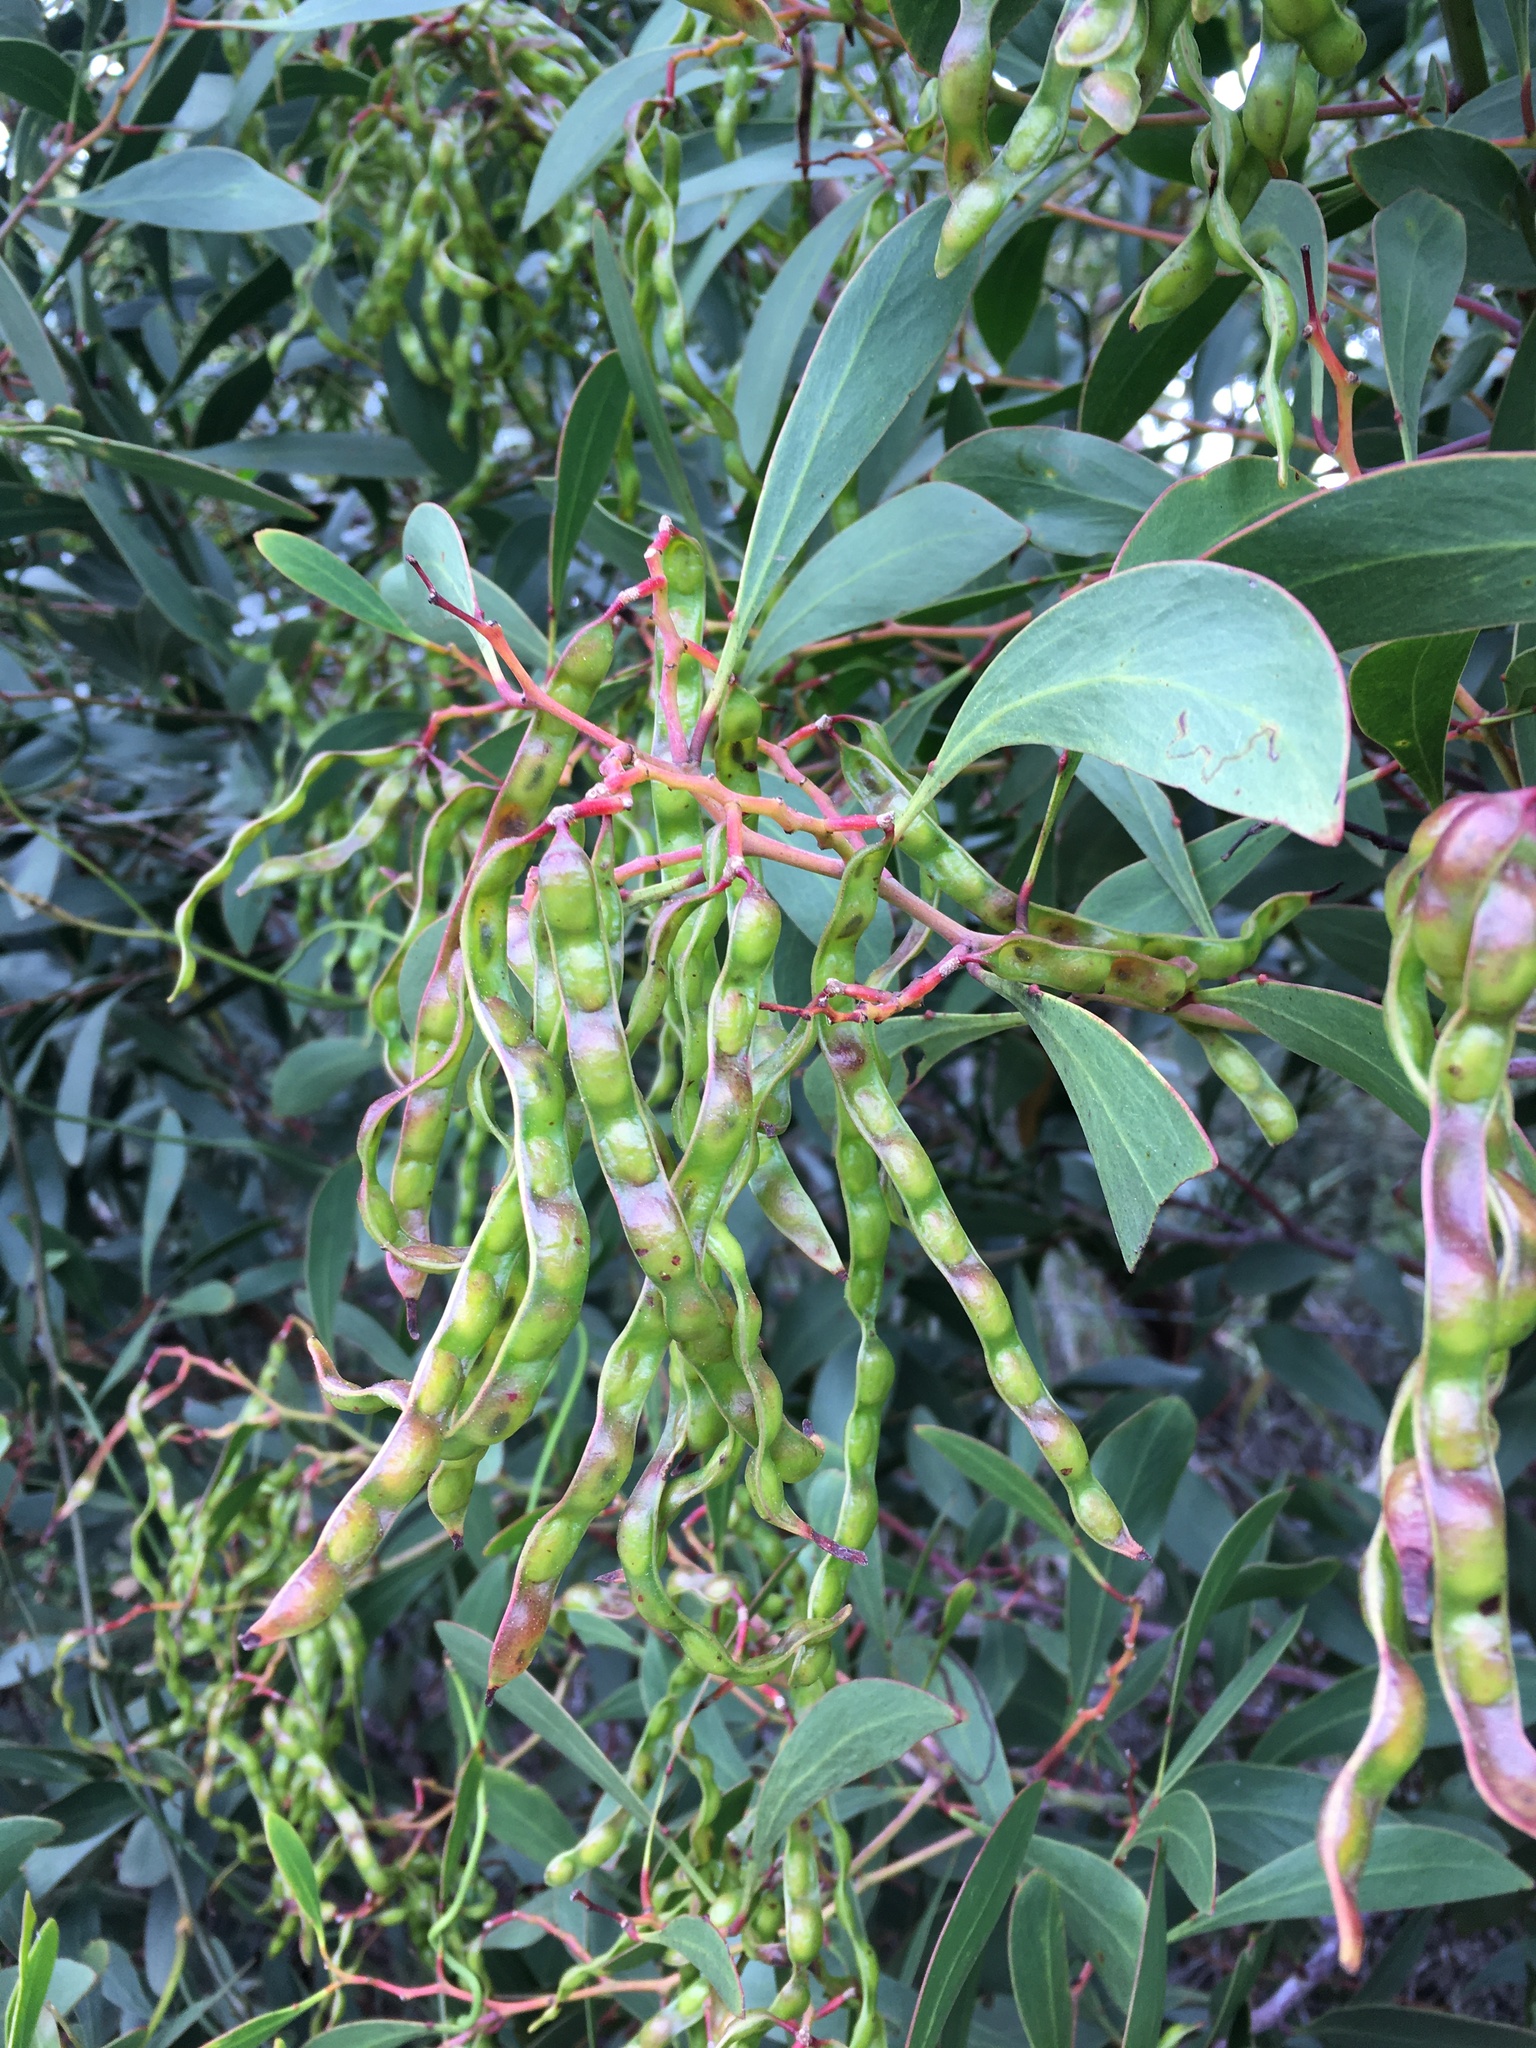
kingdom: Plantae
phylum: Tracheophyta
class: Magnoliopsida
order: Fabales
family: Fabaceae
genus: Acacia
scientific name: Acacia pycnantha
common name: Golden wattle
